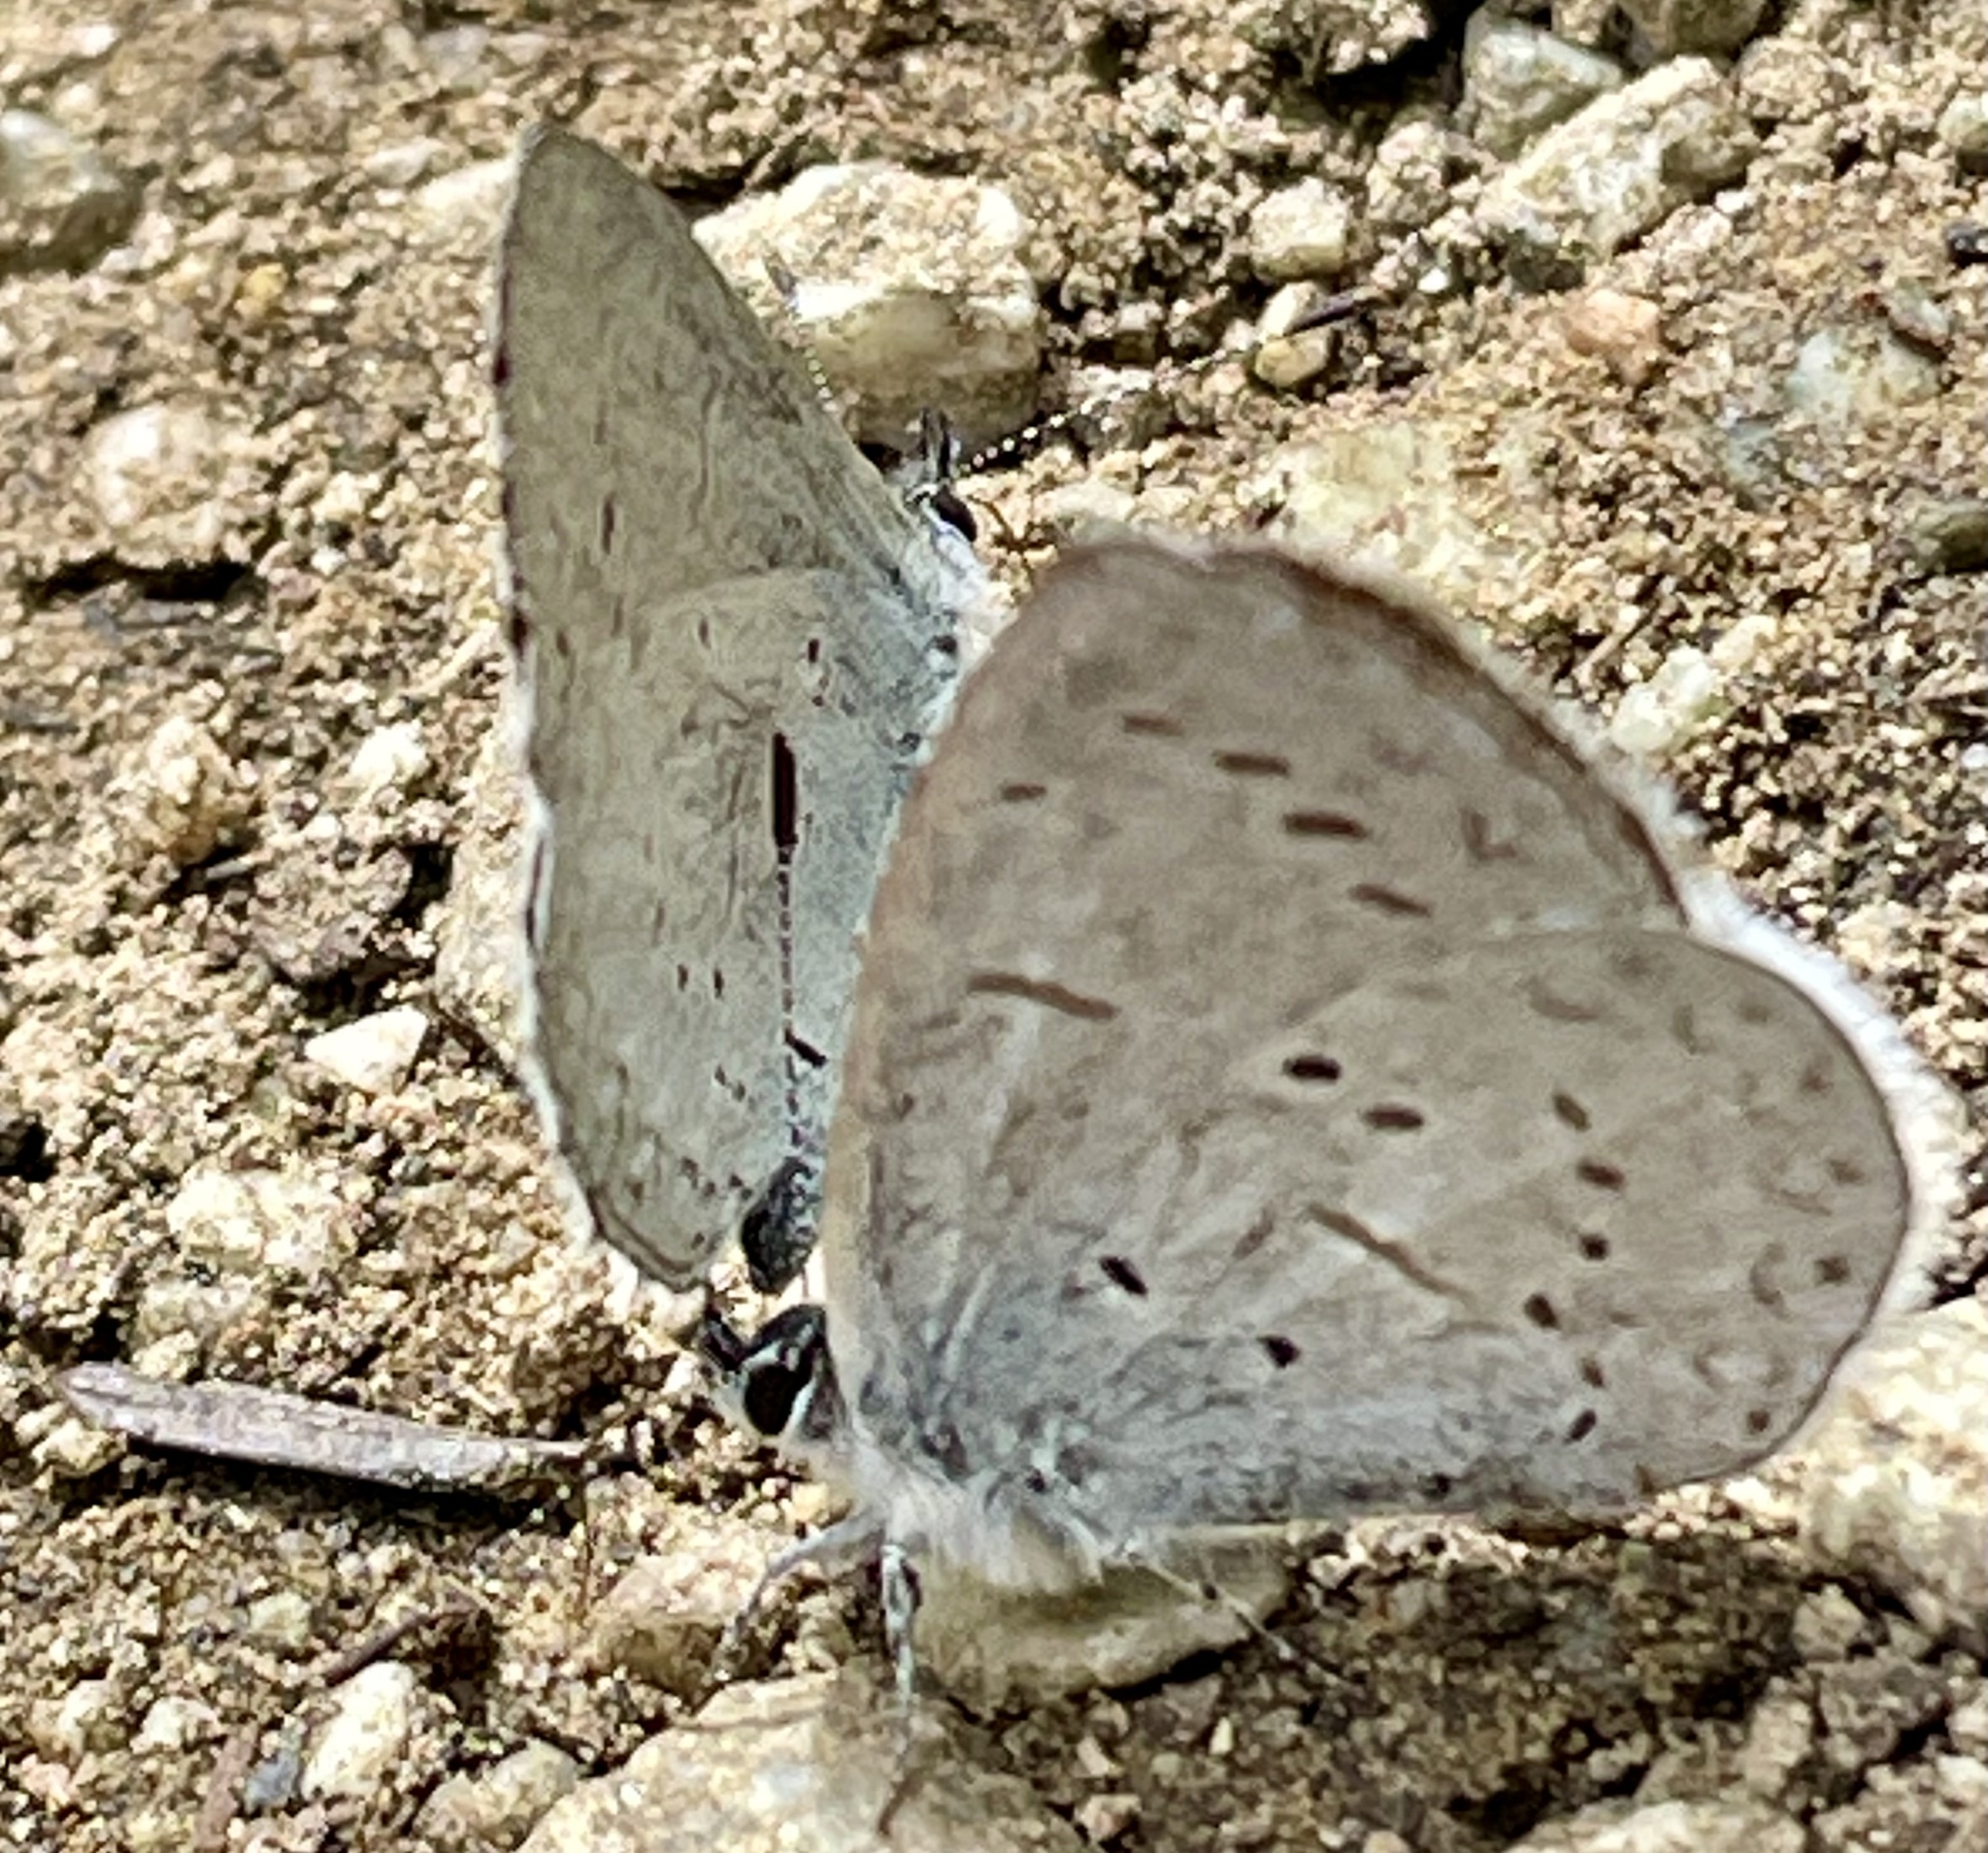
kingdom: Animalia
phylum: Arthropoda
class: Insecta
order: Lepidoptera
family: Lycaenidae
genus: Celastrina
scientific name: Celastrina ladon
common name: Spring azure
